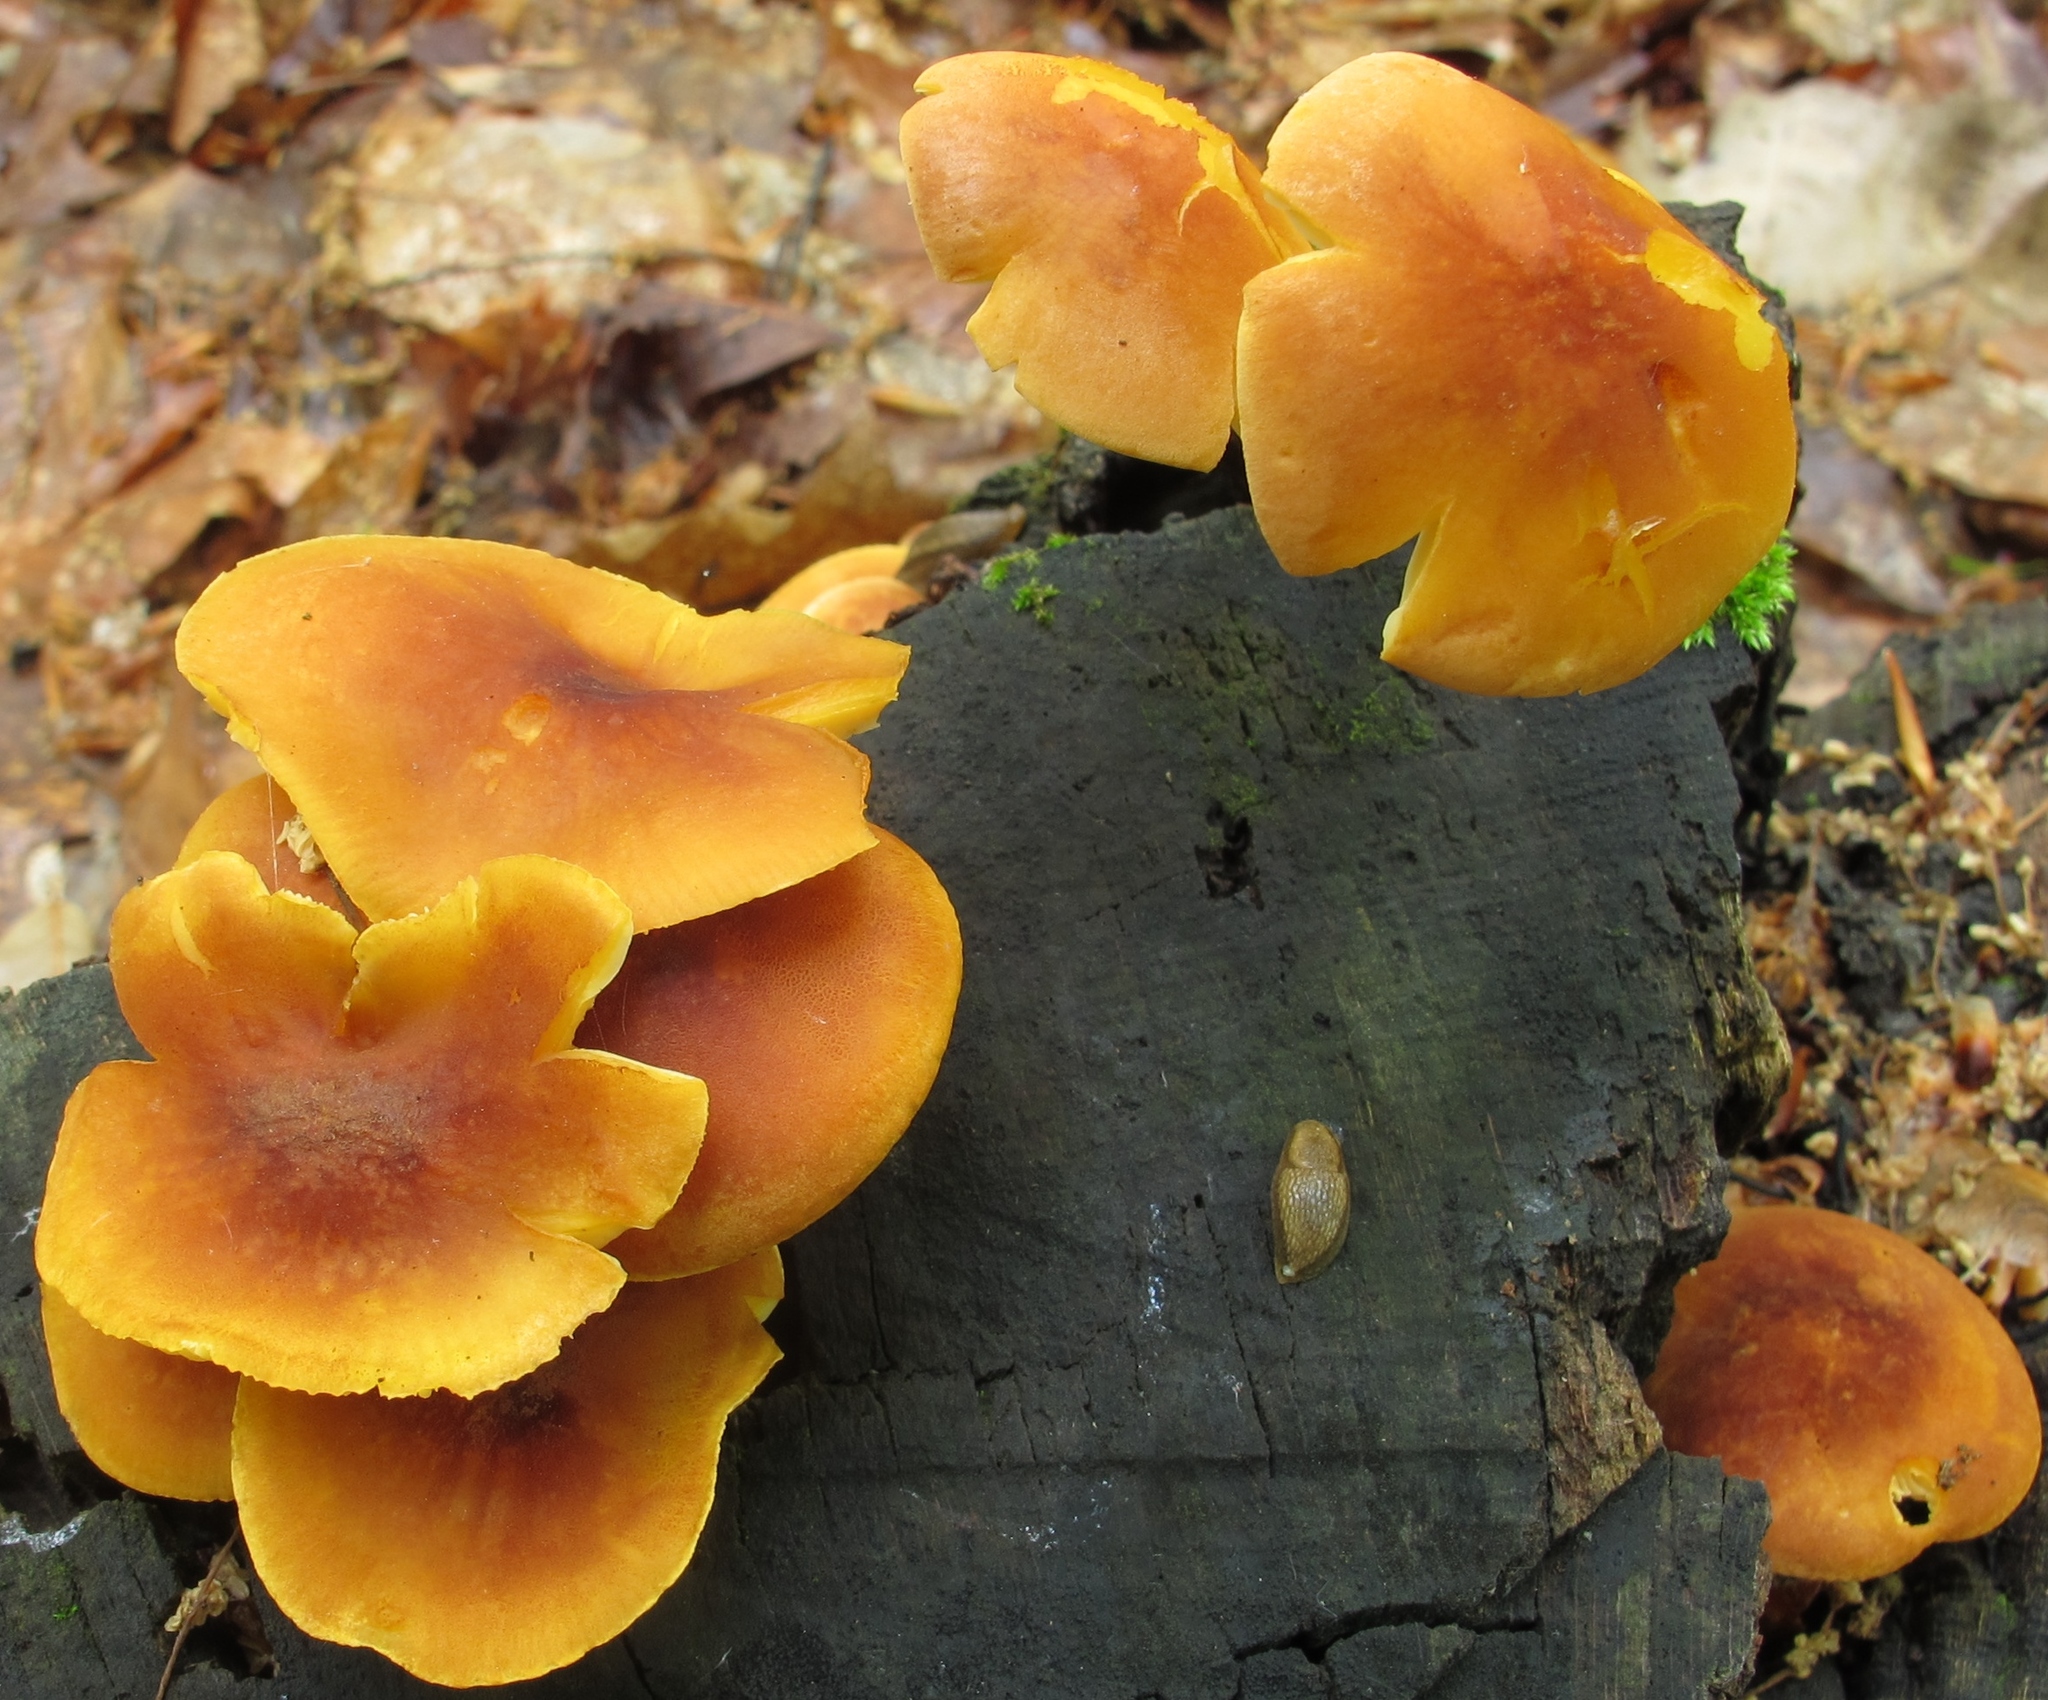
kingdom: Fungi
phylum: Basidiomycota
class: Agaricomycetes
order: Agaricales
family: Mycenaceae
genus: Xeromphalina
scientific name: Xeromphalina tenuipes
